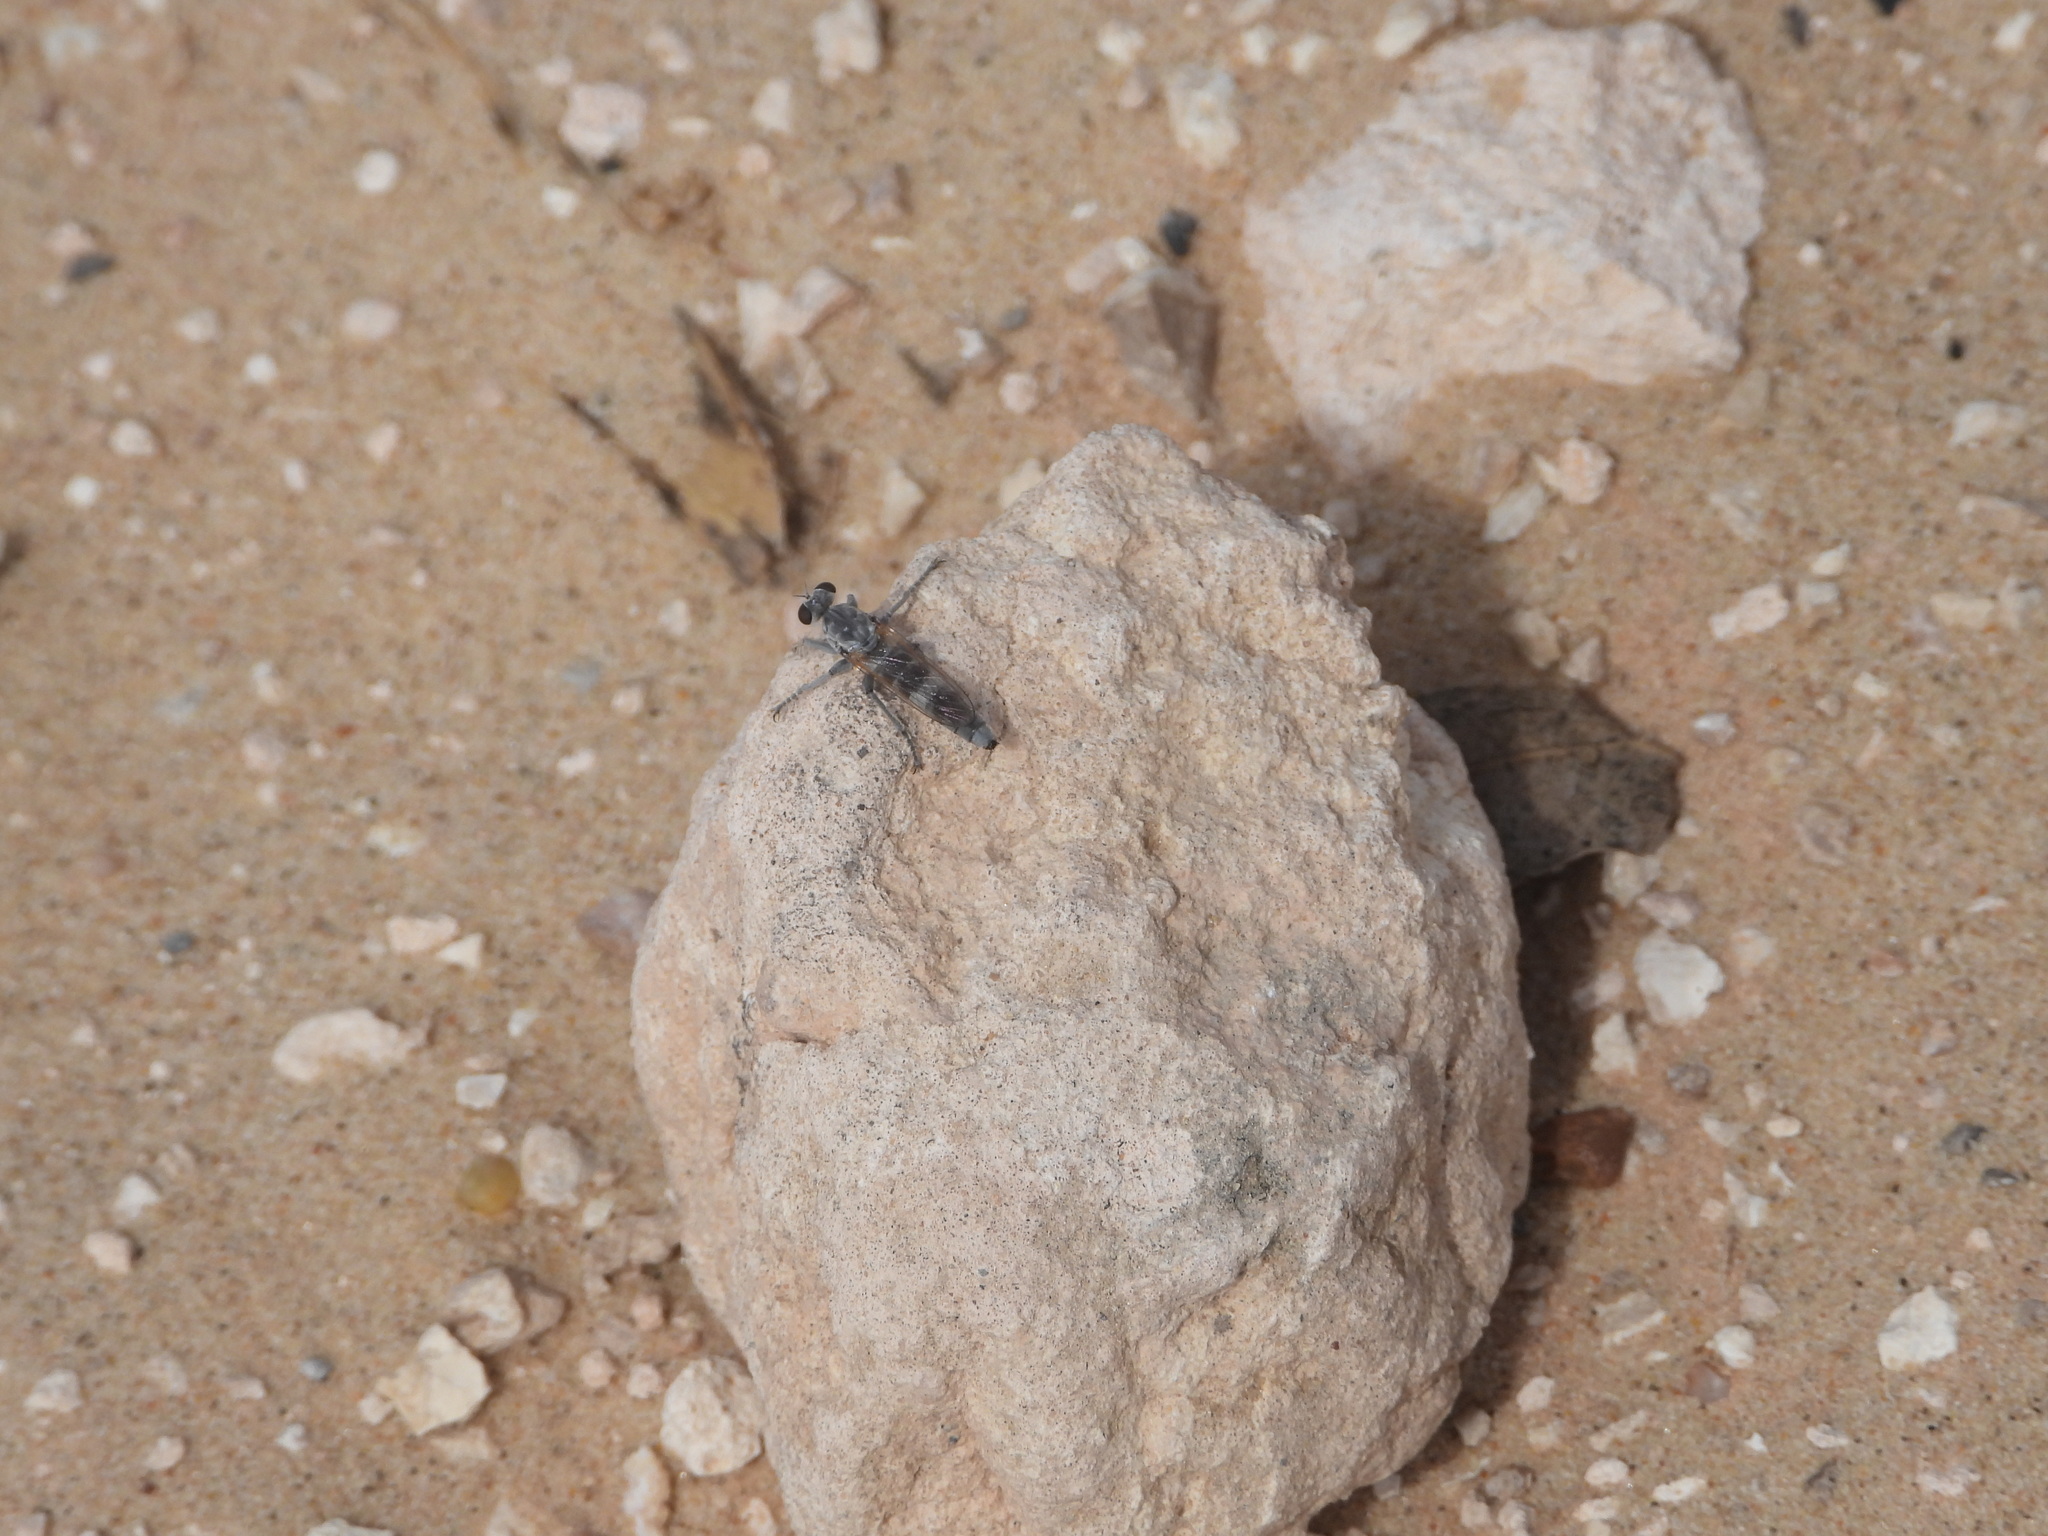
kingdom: Animalia
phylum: Arthropoda
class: Insecta
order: Diptera
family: Asilidae
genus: Stichopogon
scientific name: Stichopogon trifasciatus
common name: Three-banded robber fly
